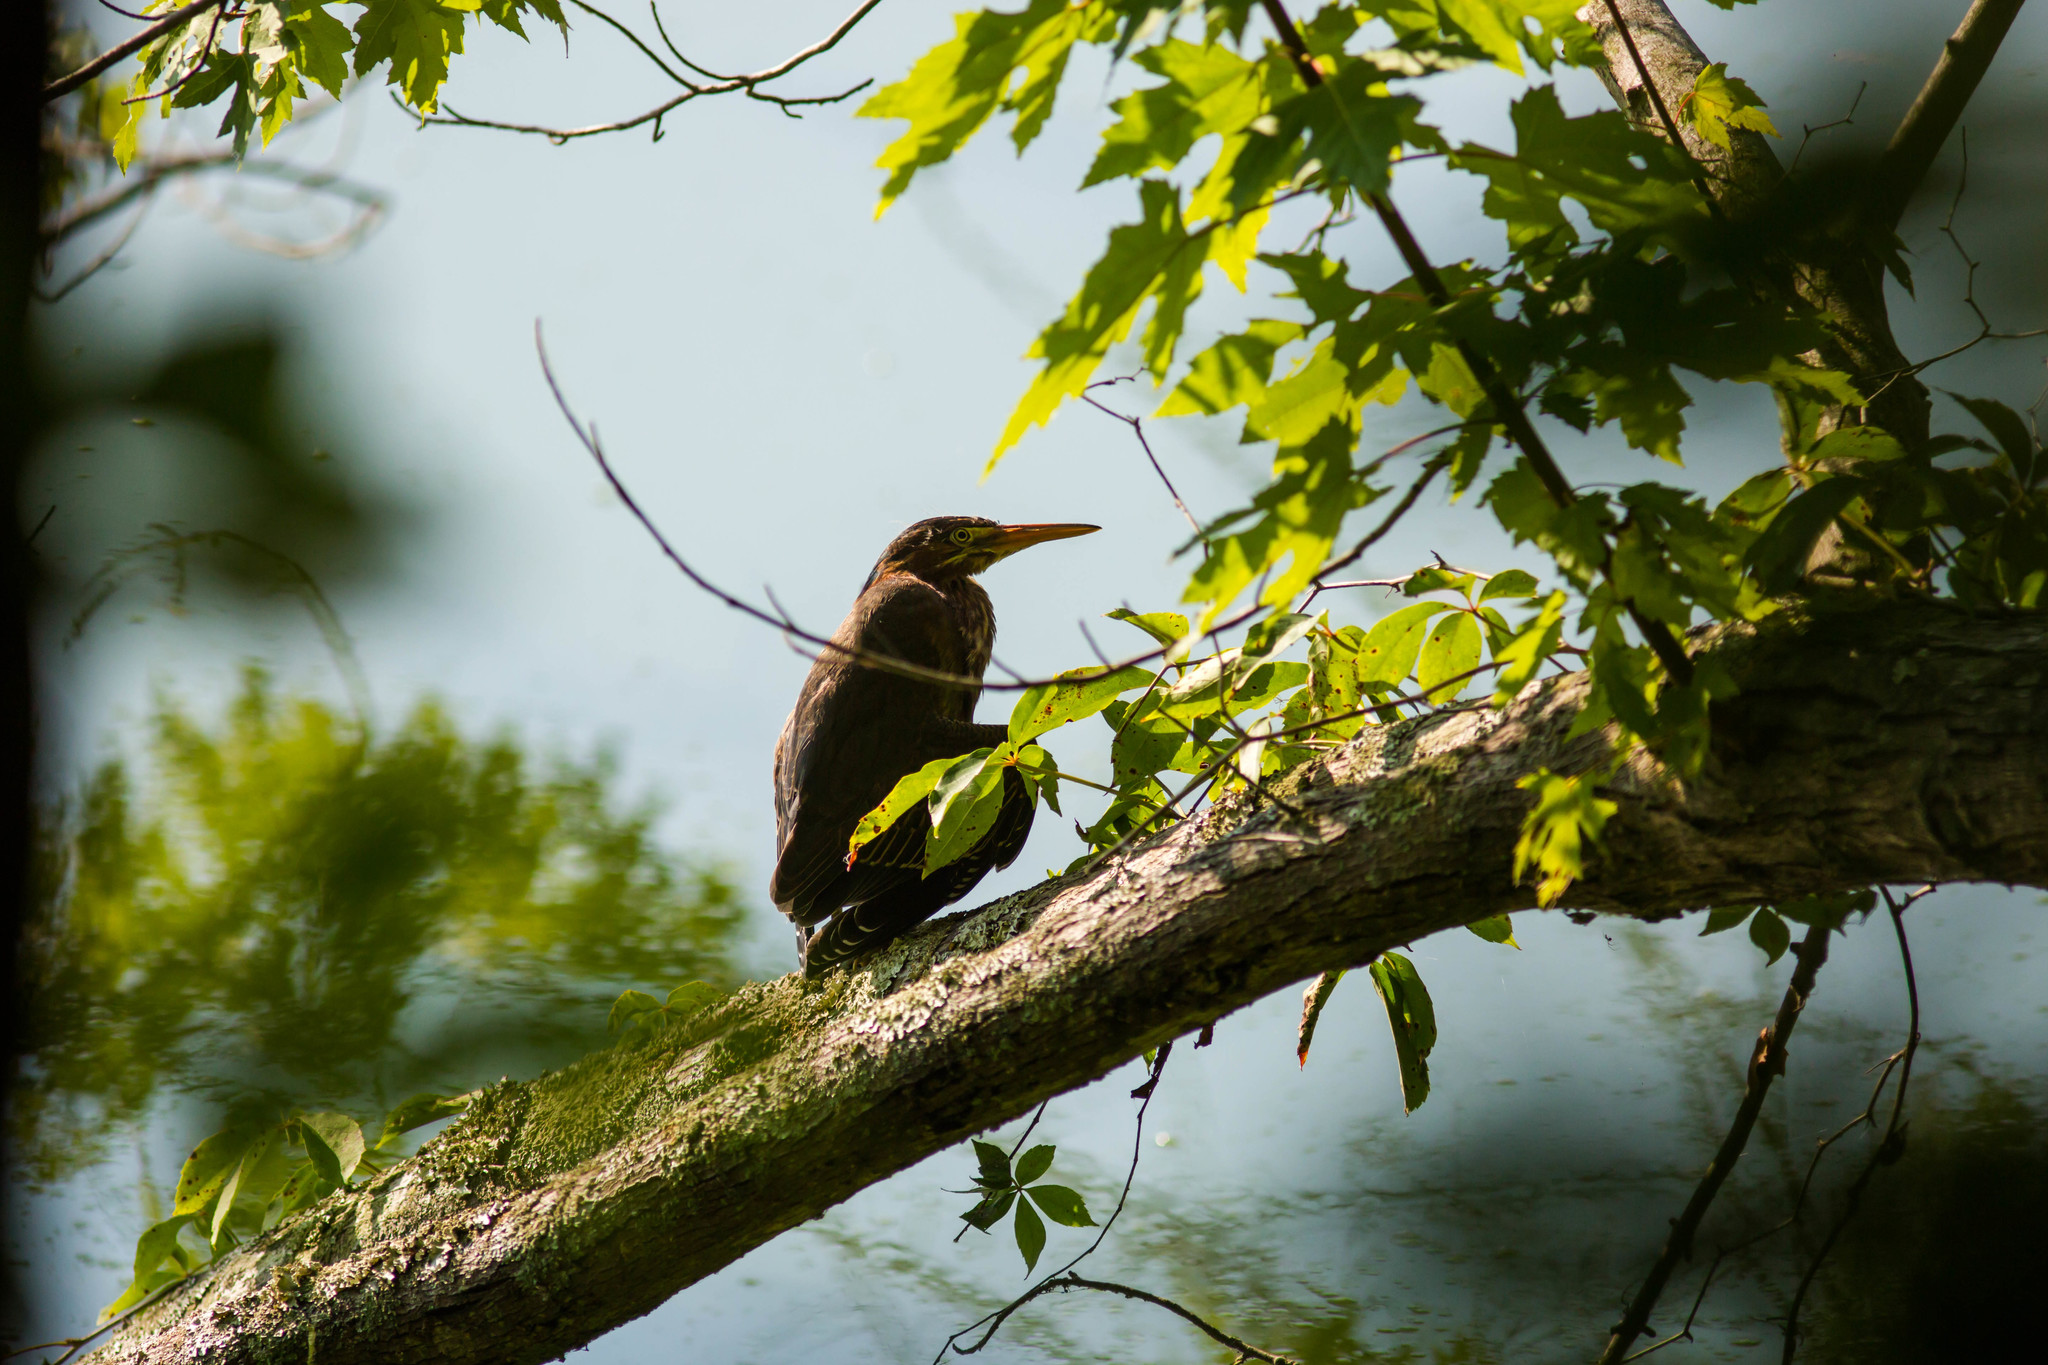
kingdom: Animalia
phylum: Chordata
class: Aves
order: Pelecaniformes
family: Ardeidae
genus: Butorides
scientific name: Butorides virescens
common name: Green heron
